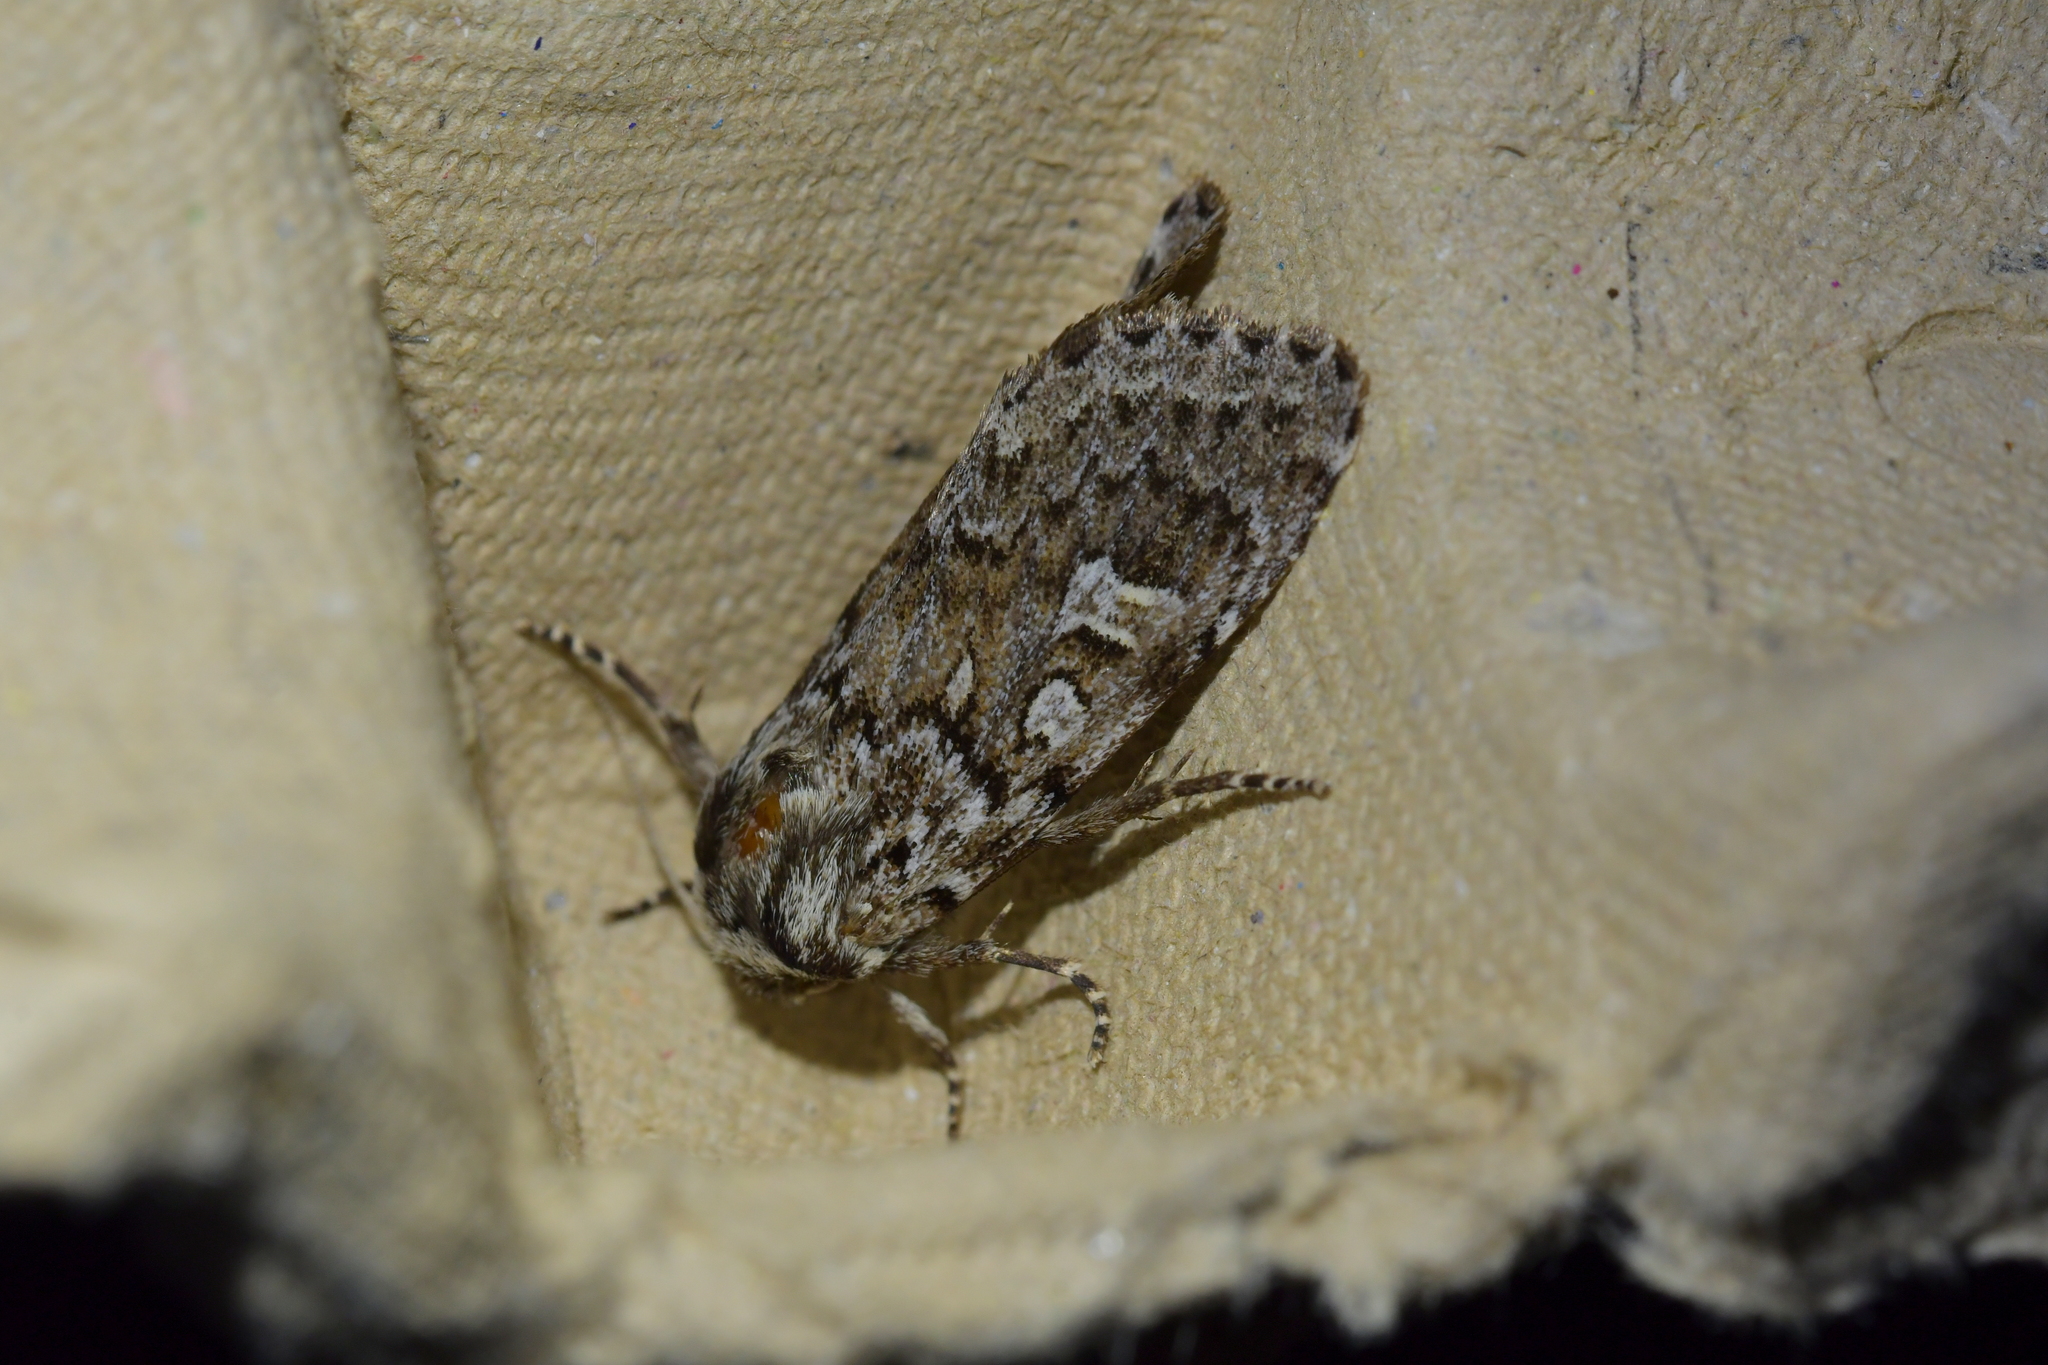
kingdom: Animalia
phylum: Arthropoda
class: Insecta
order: Lepidoptera
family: Noctuidae
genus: Ichneutica
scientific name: Ichneutica marmorata
